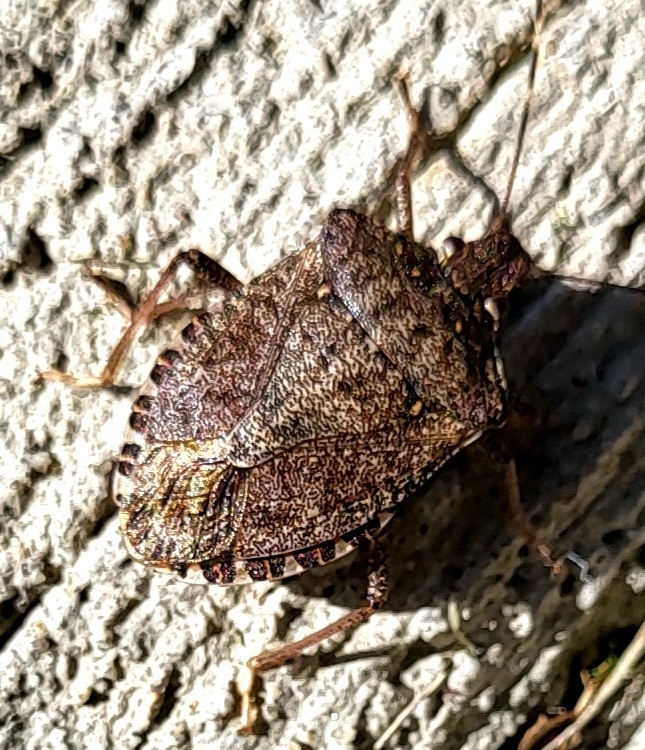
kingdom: Animalia
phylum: Arthropoda
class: Insecta
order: Hemiptera
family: Pentatomidae
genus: Halyomorpha
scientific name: Halyomorpha halys
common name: Brown marmorated stink bug
